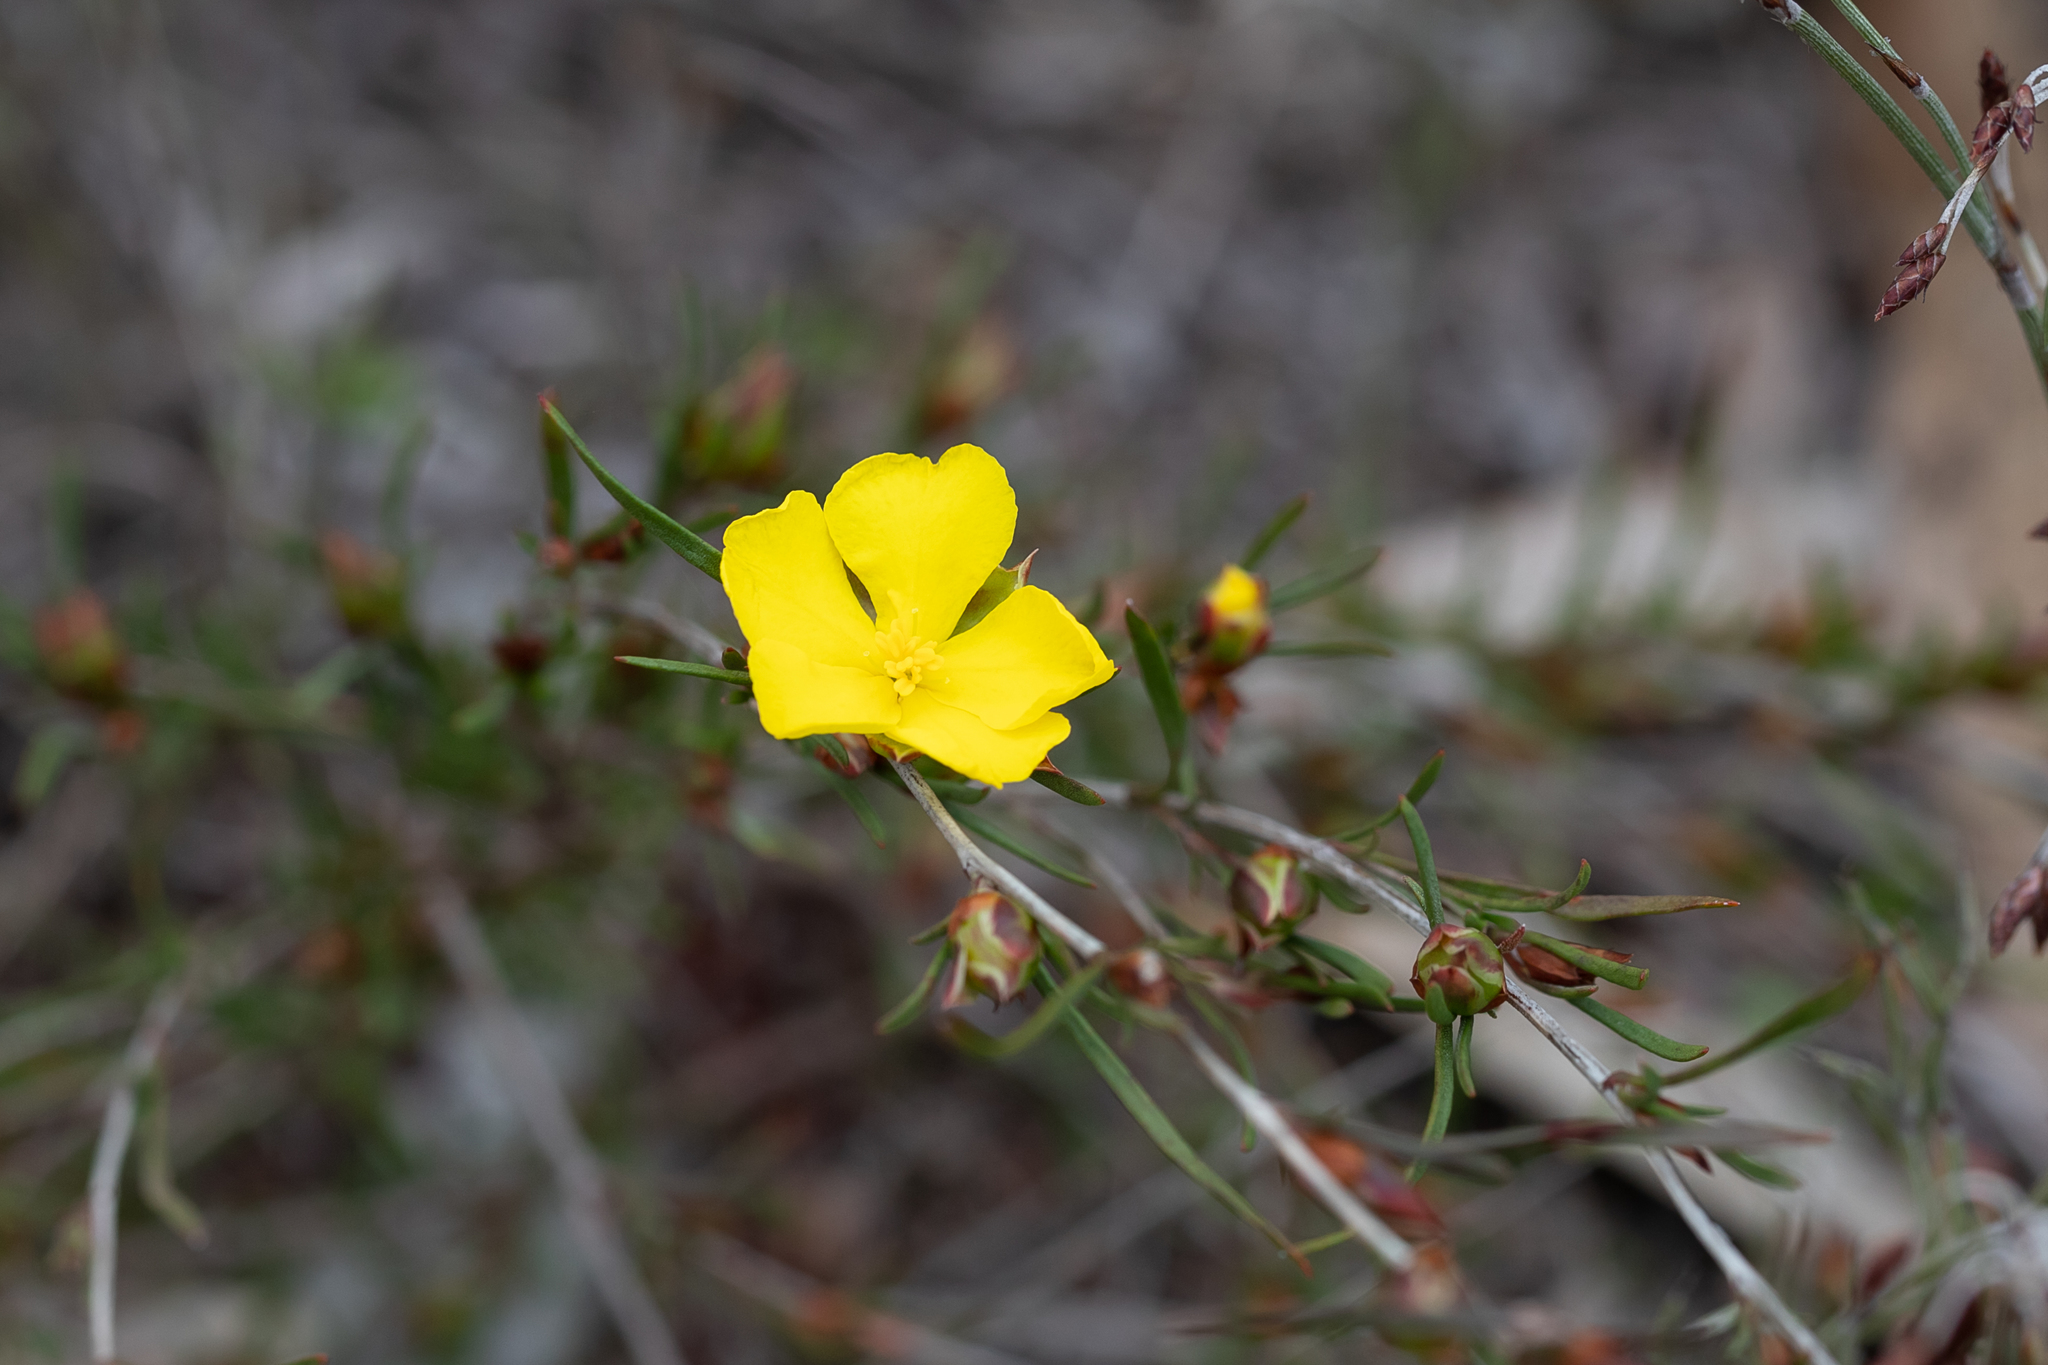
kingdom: Plantae
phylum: Tracheophyta
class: Magnoliopsida
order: Dilleniales
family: Dilleniaceae
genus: Hibbertia
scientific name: Hibbertia virgata
